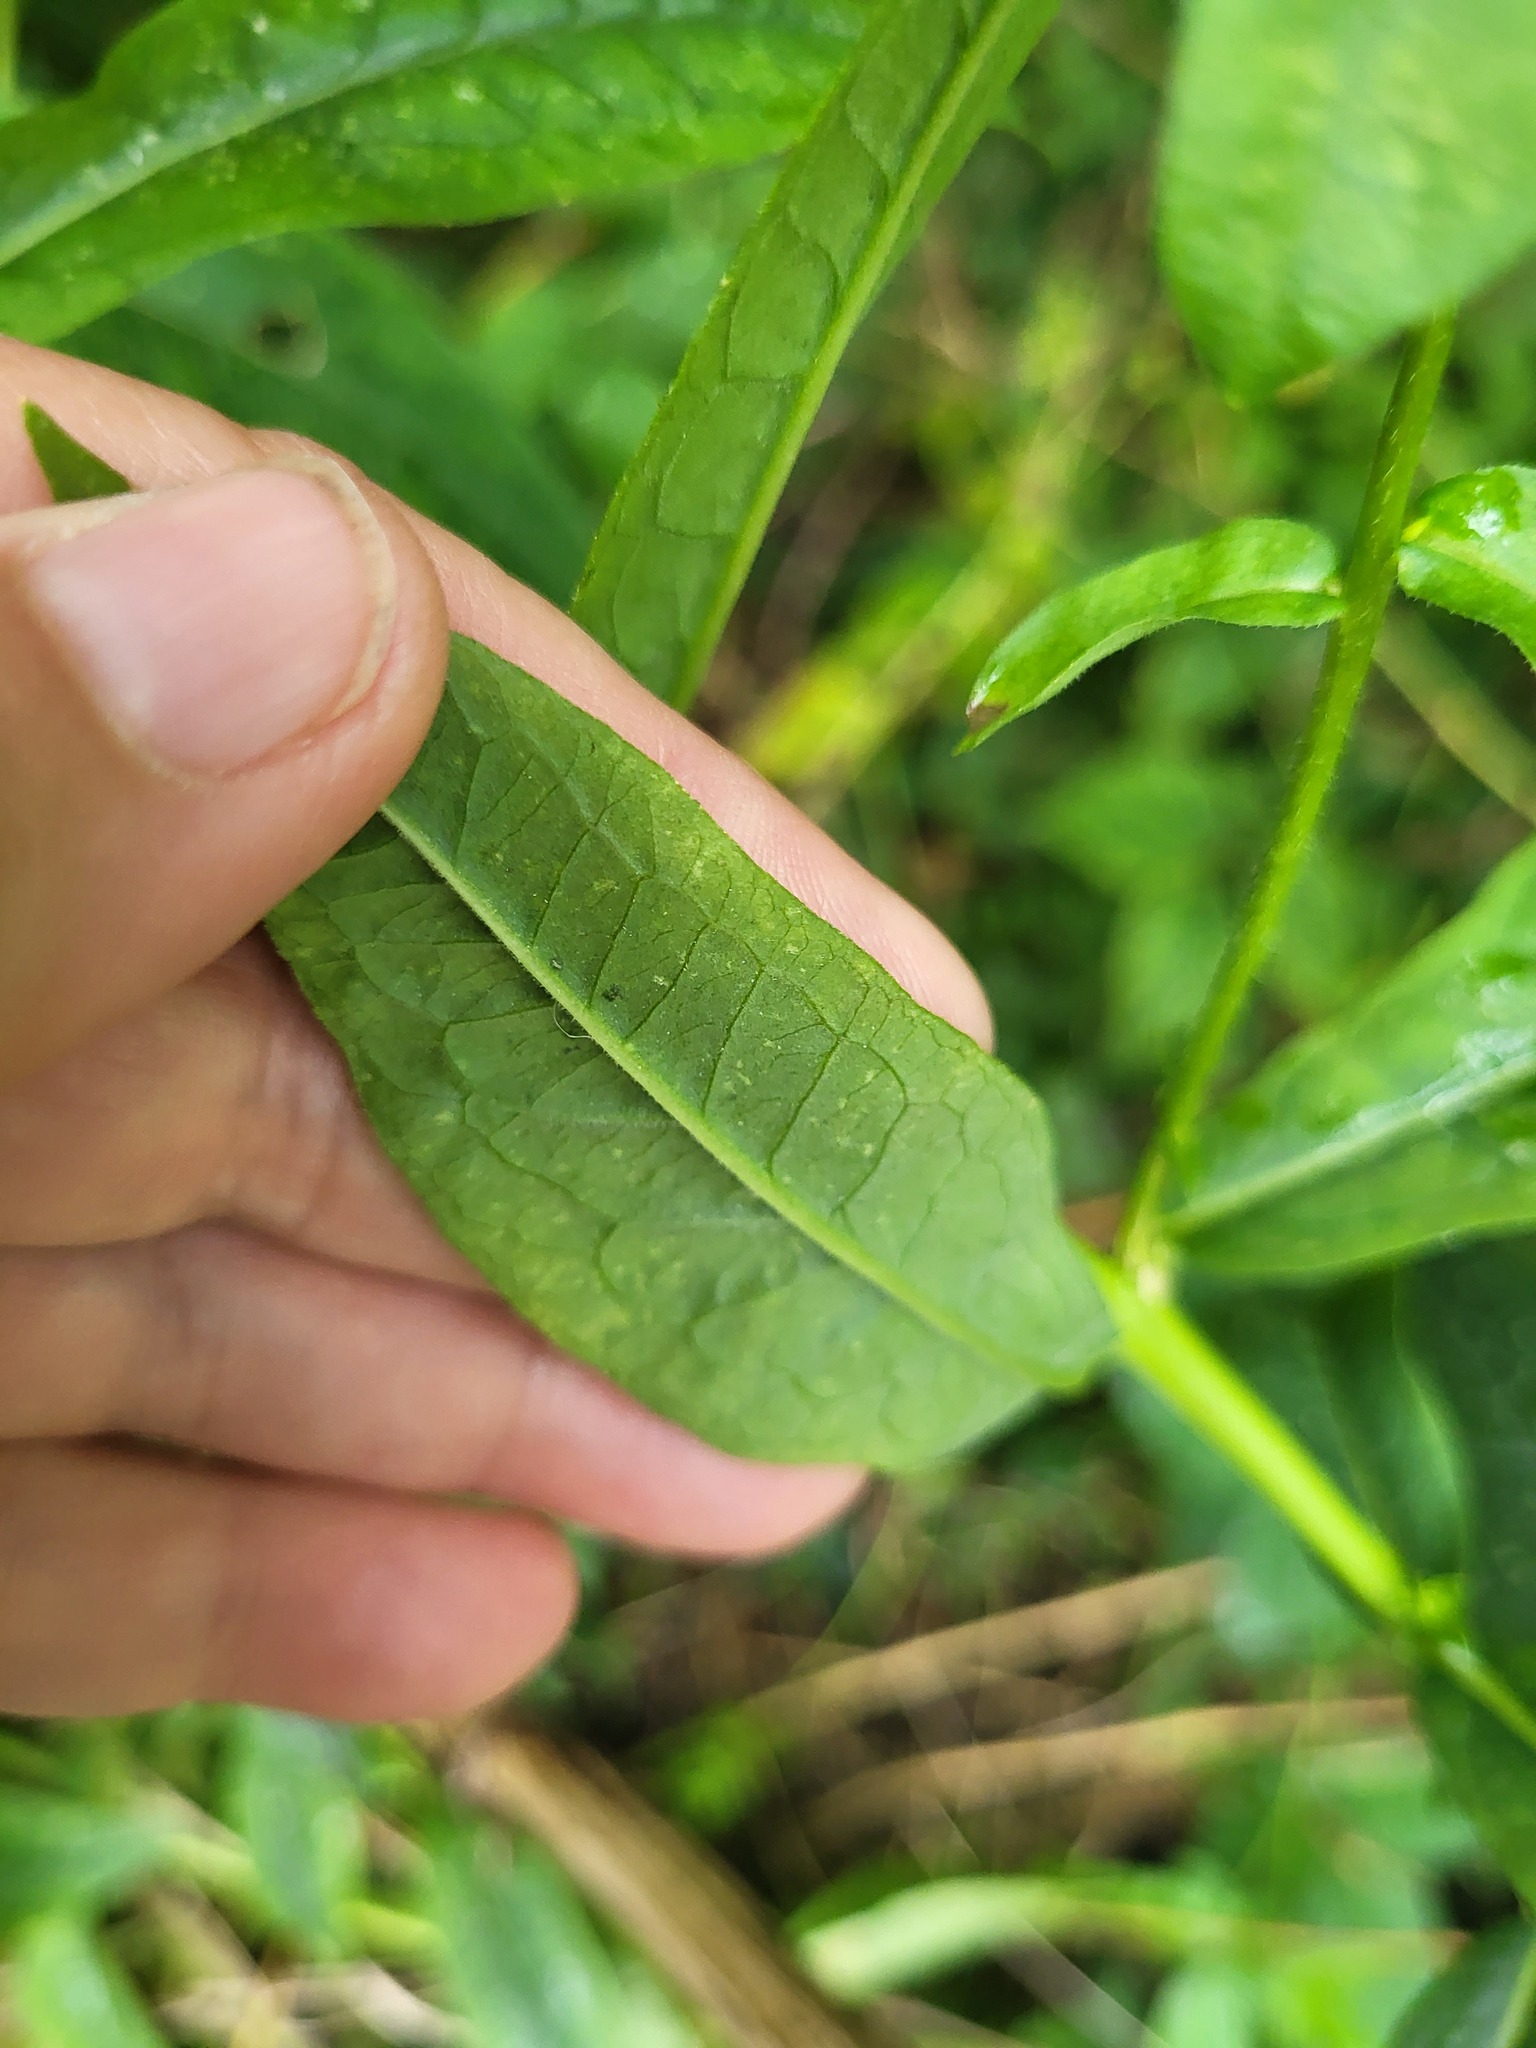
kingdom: Plantae
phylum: Tracheophyta
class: Magnoliopsida
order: Ericales
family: Polemoniaceae
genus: Phlox
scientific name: Phlox paniculata
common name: Fall phlox
